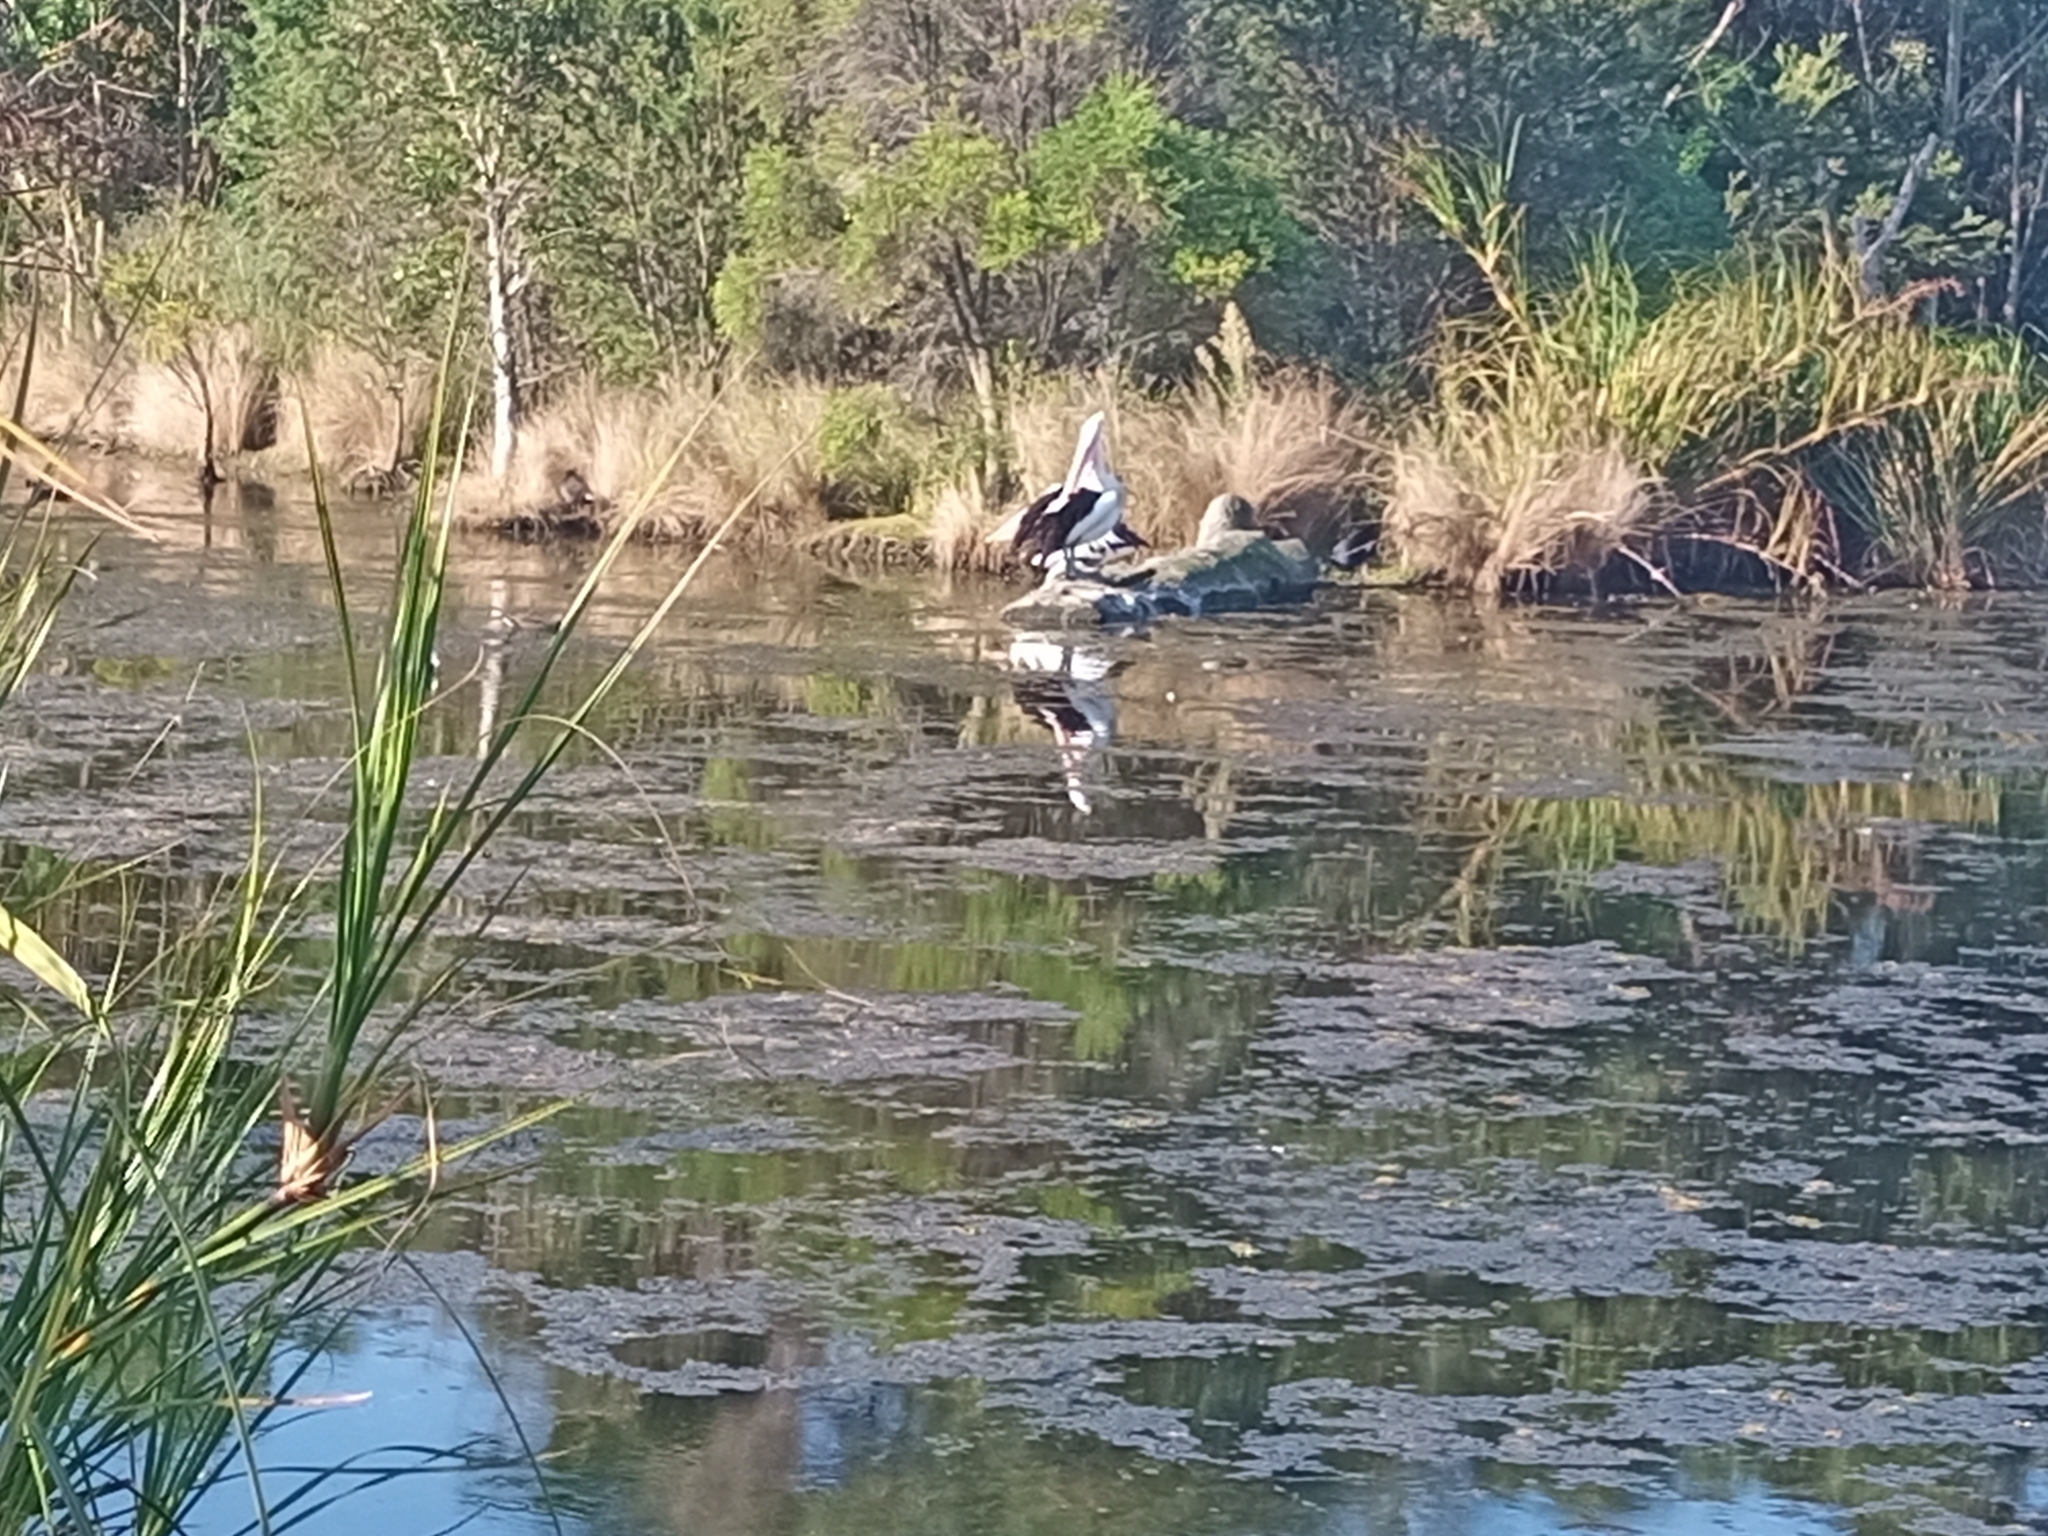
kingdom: Animalia
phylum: Chordata
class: Aves
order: Pelecaniformes
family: Pelecanidae
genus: Pelecanus
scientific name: Pelecanus conspicillatus
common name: Australian pelican
